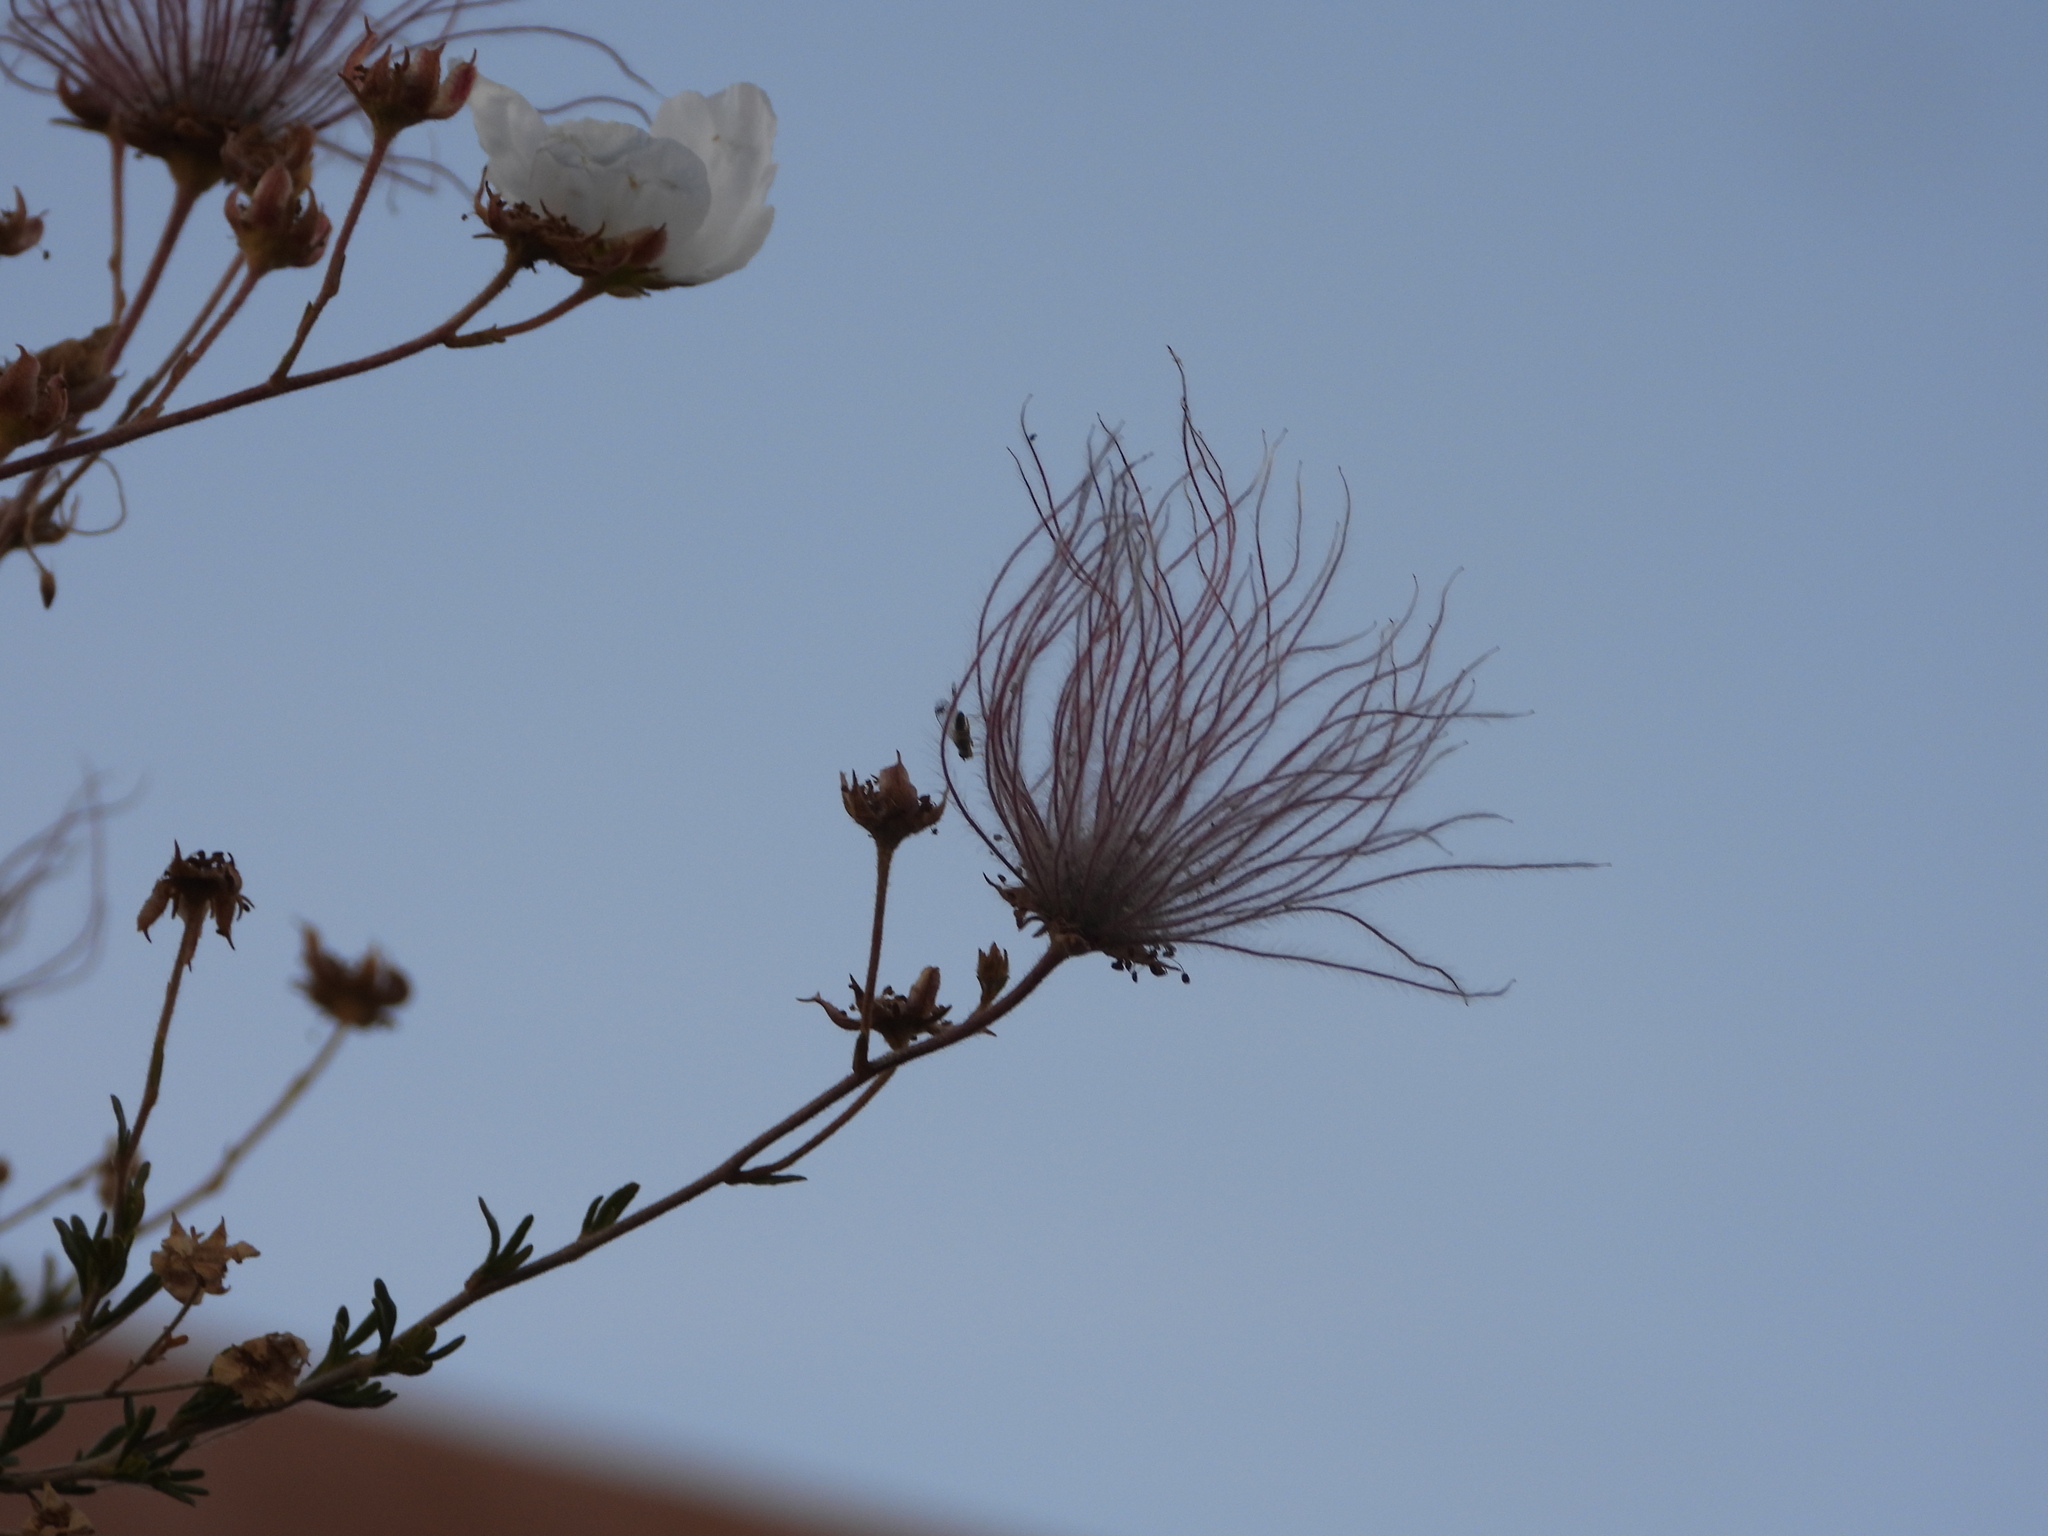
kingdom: Animalia
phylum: Arthropoda
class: Insecta
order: Diptera
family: Tephritidae
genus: Trupanea
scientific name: Trupanea radifera
